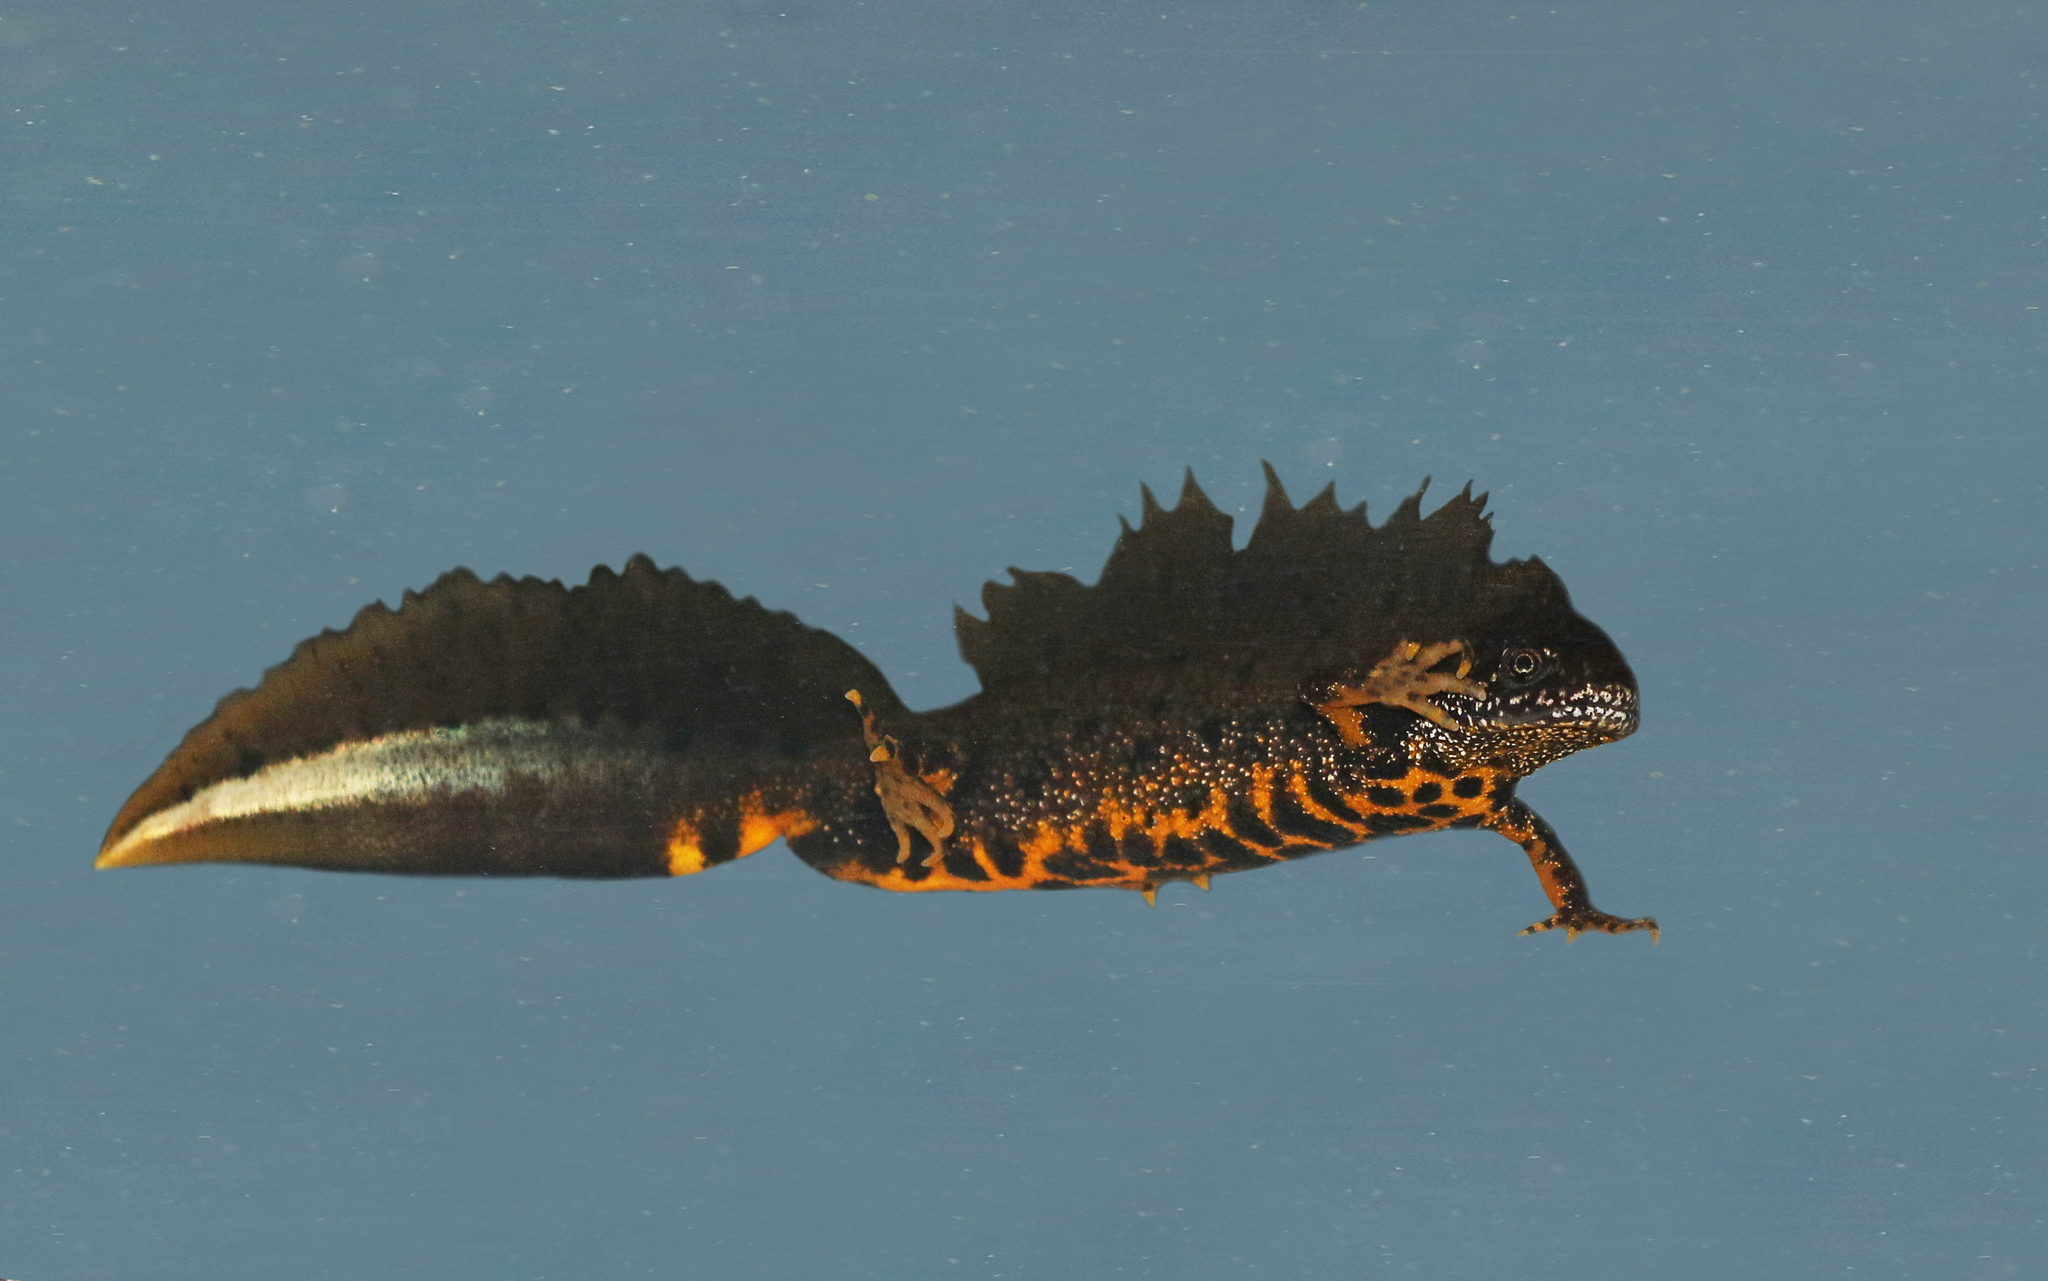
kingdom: Animalia
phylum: Chordata
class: Amphibia
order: Caudata
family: Salamandridae
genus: Triturus
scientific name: Triturus cristatus
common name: Crested newt
